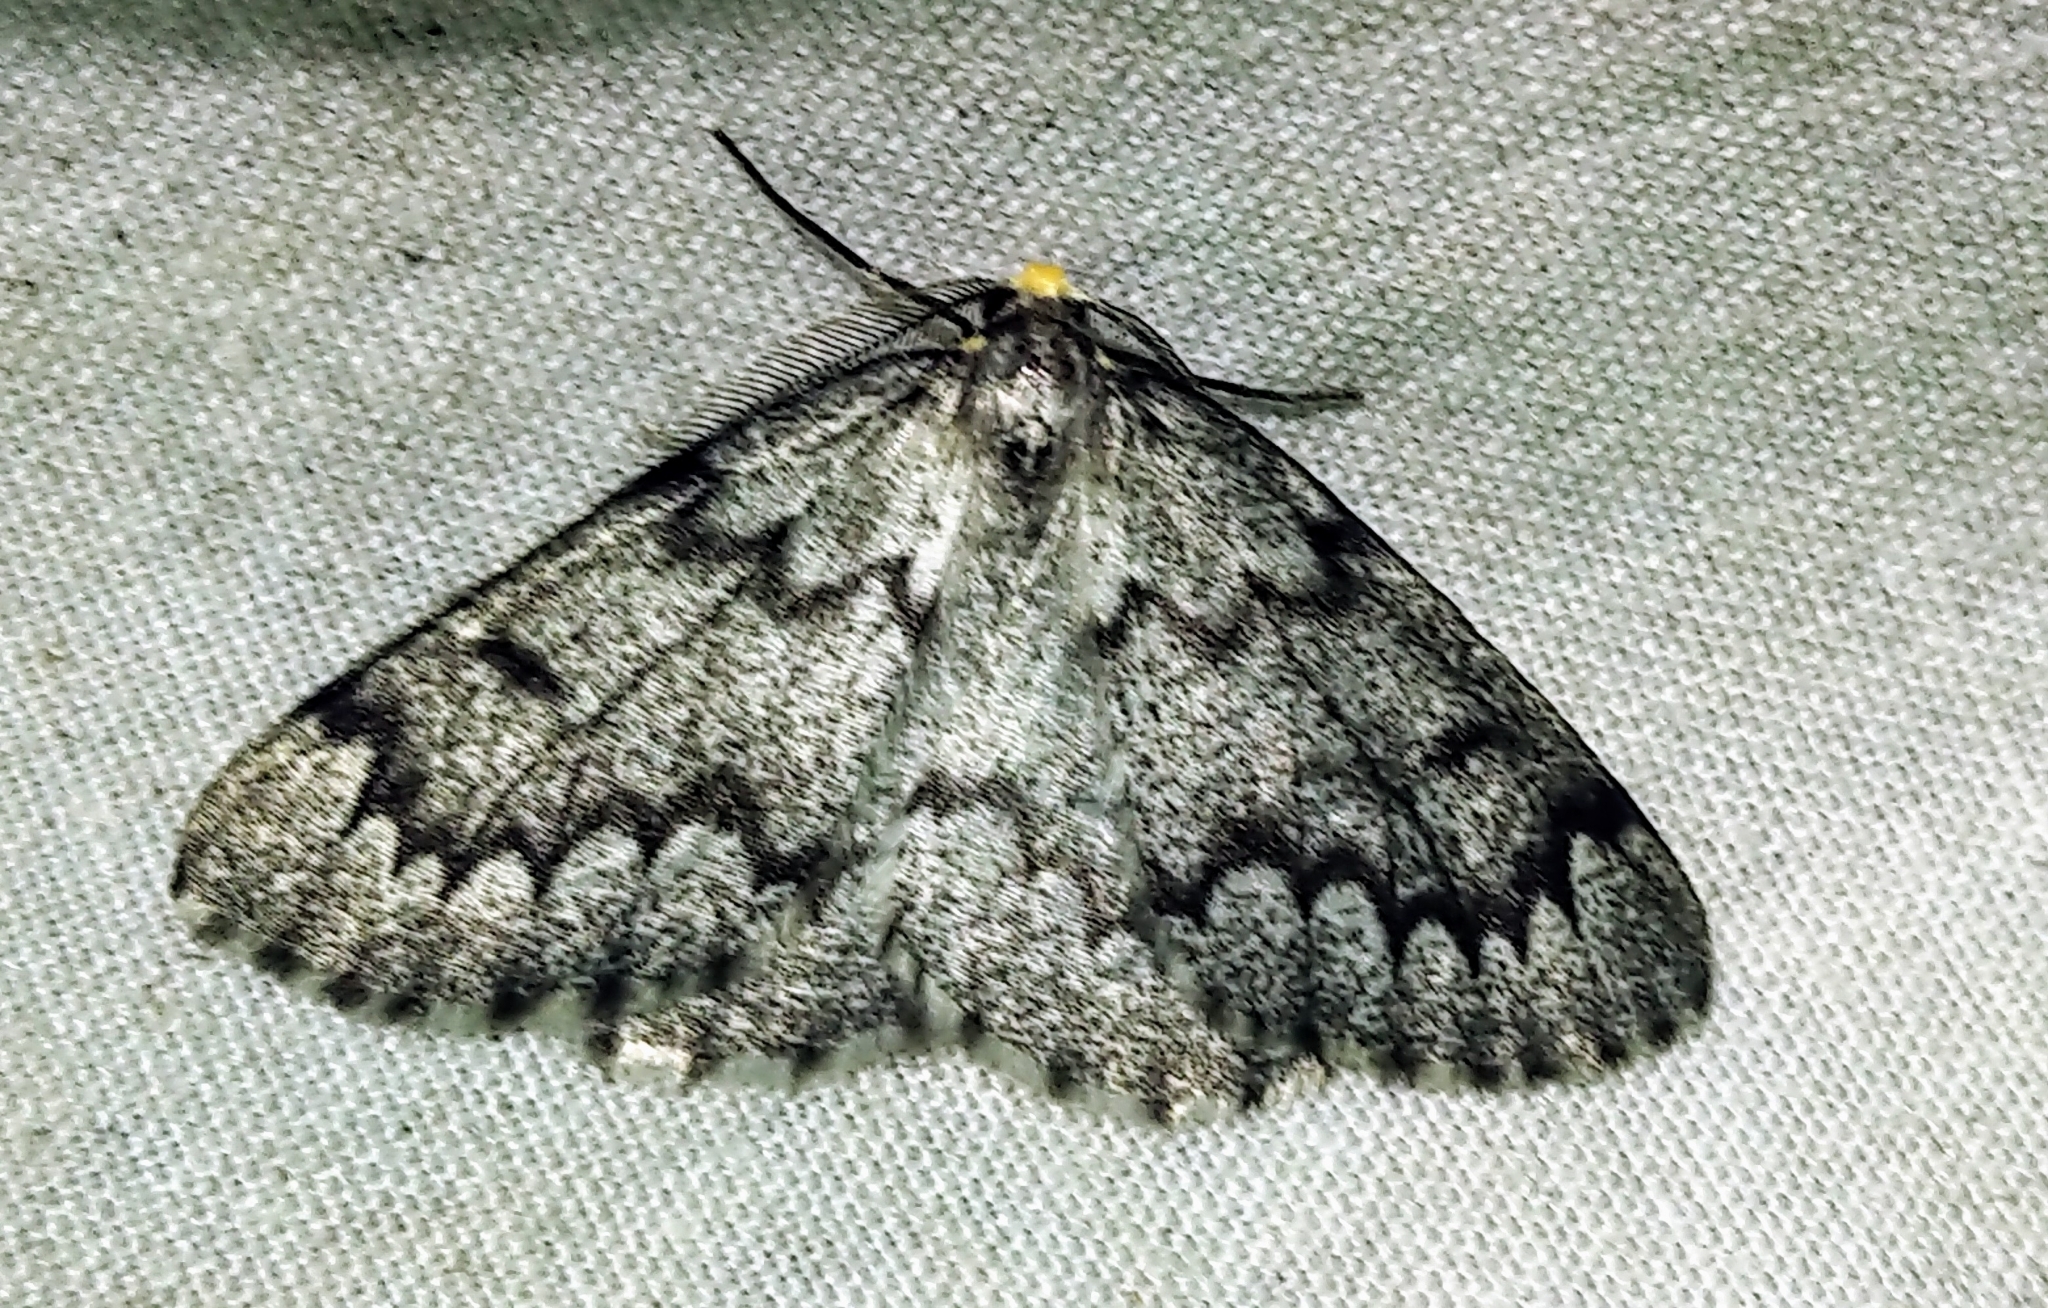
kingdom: Animalia
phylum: Arthropoda
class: Insecta
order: Lepidoptera
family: Geometridae
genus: Nepytia
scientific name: Nepytia canosaria
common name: False hemlock looper
